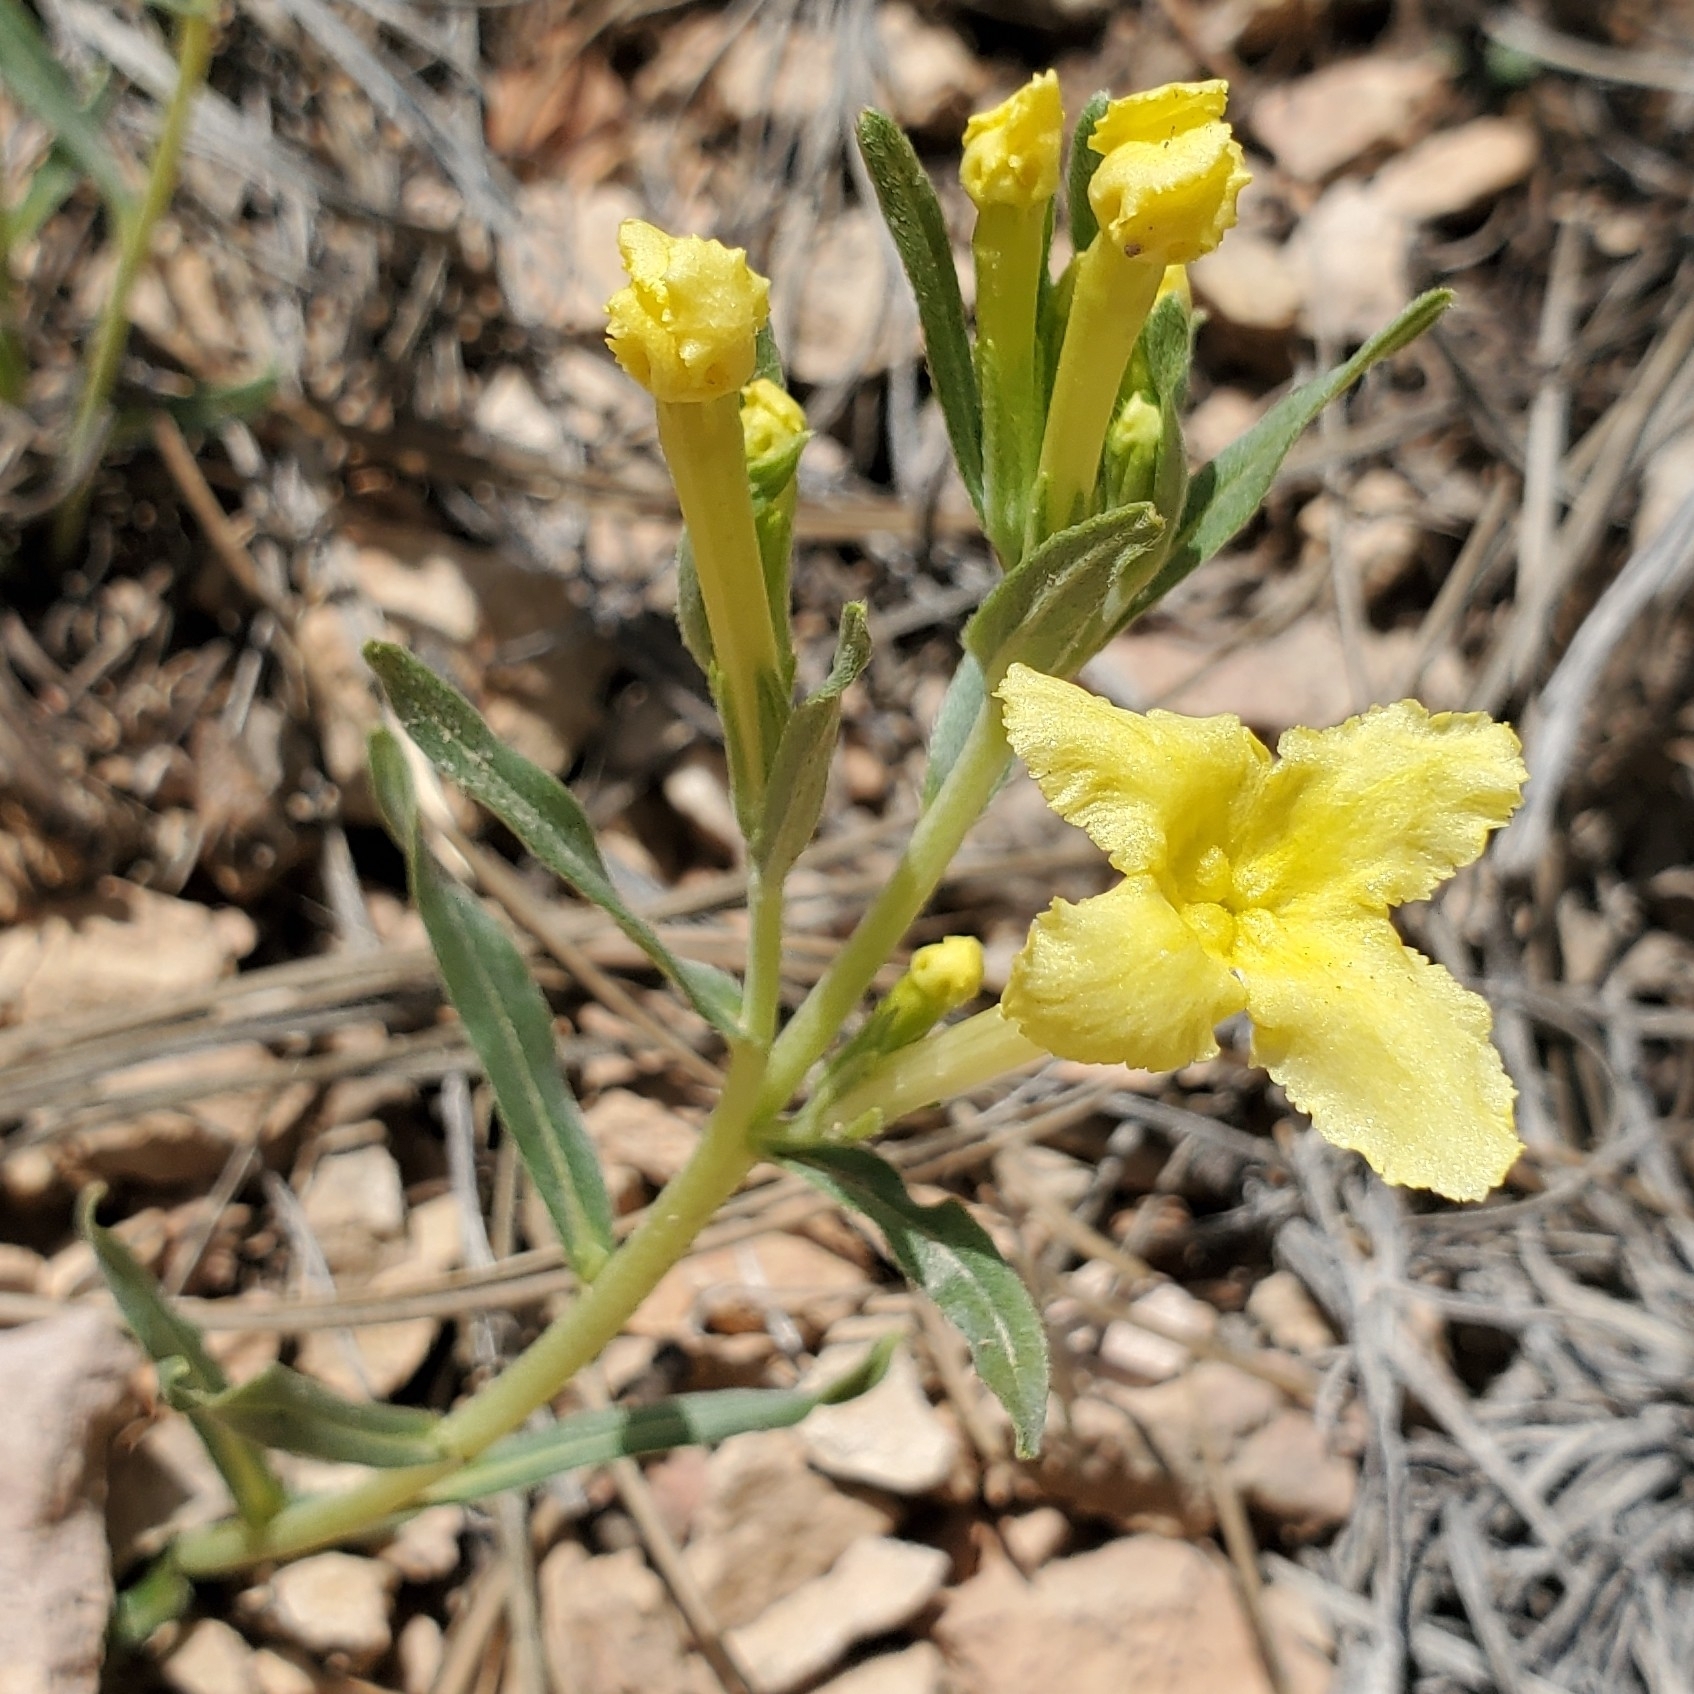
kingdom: Plantae
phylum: Tracheophyta
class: Magnoliopsida
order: Boraginales
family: Boraginaceae
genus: Lithospermum
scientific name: Lithospermum incisum
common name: Fringed gromwell
